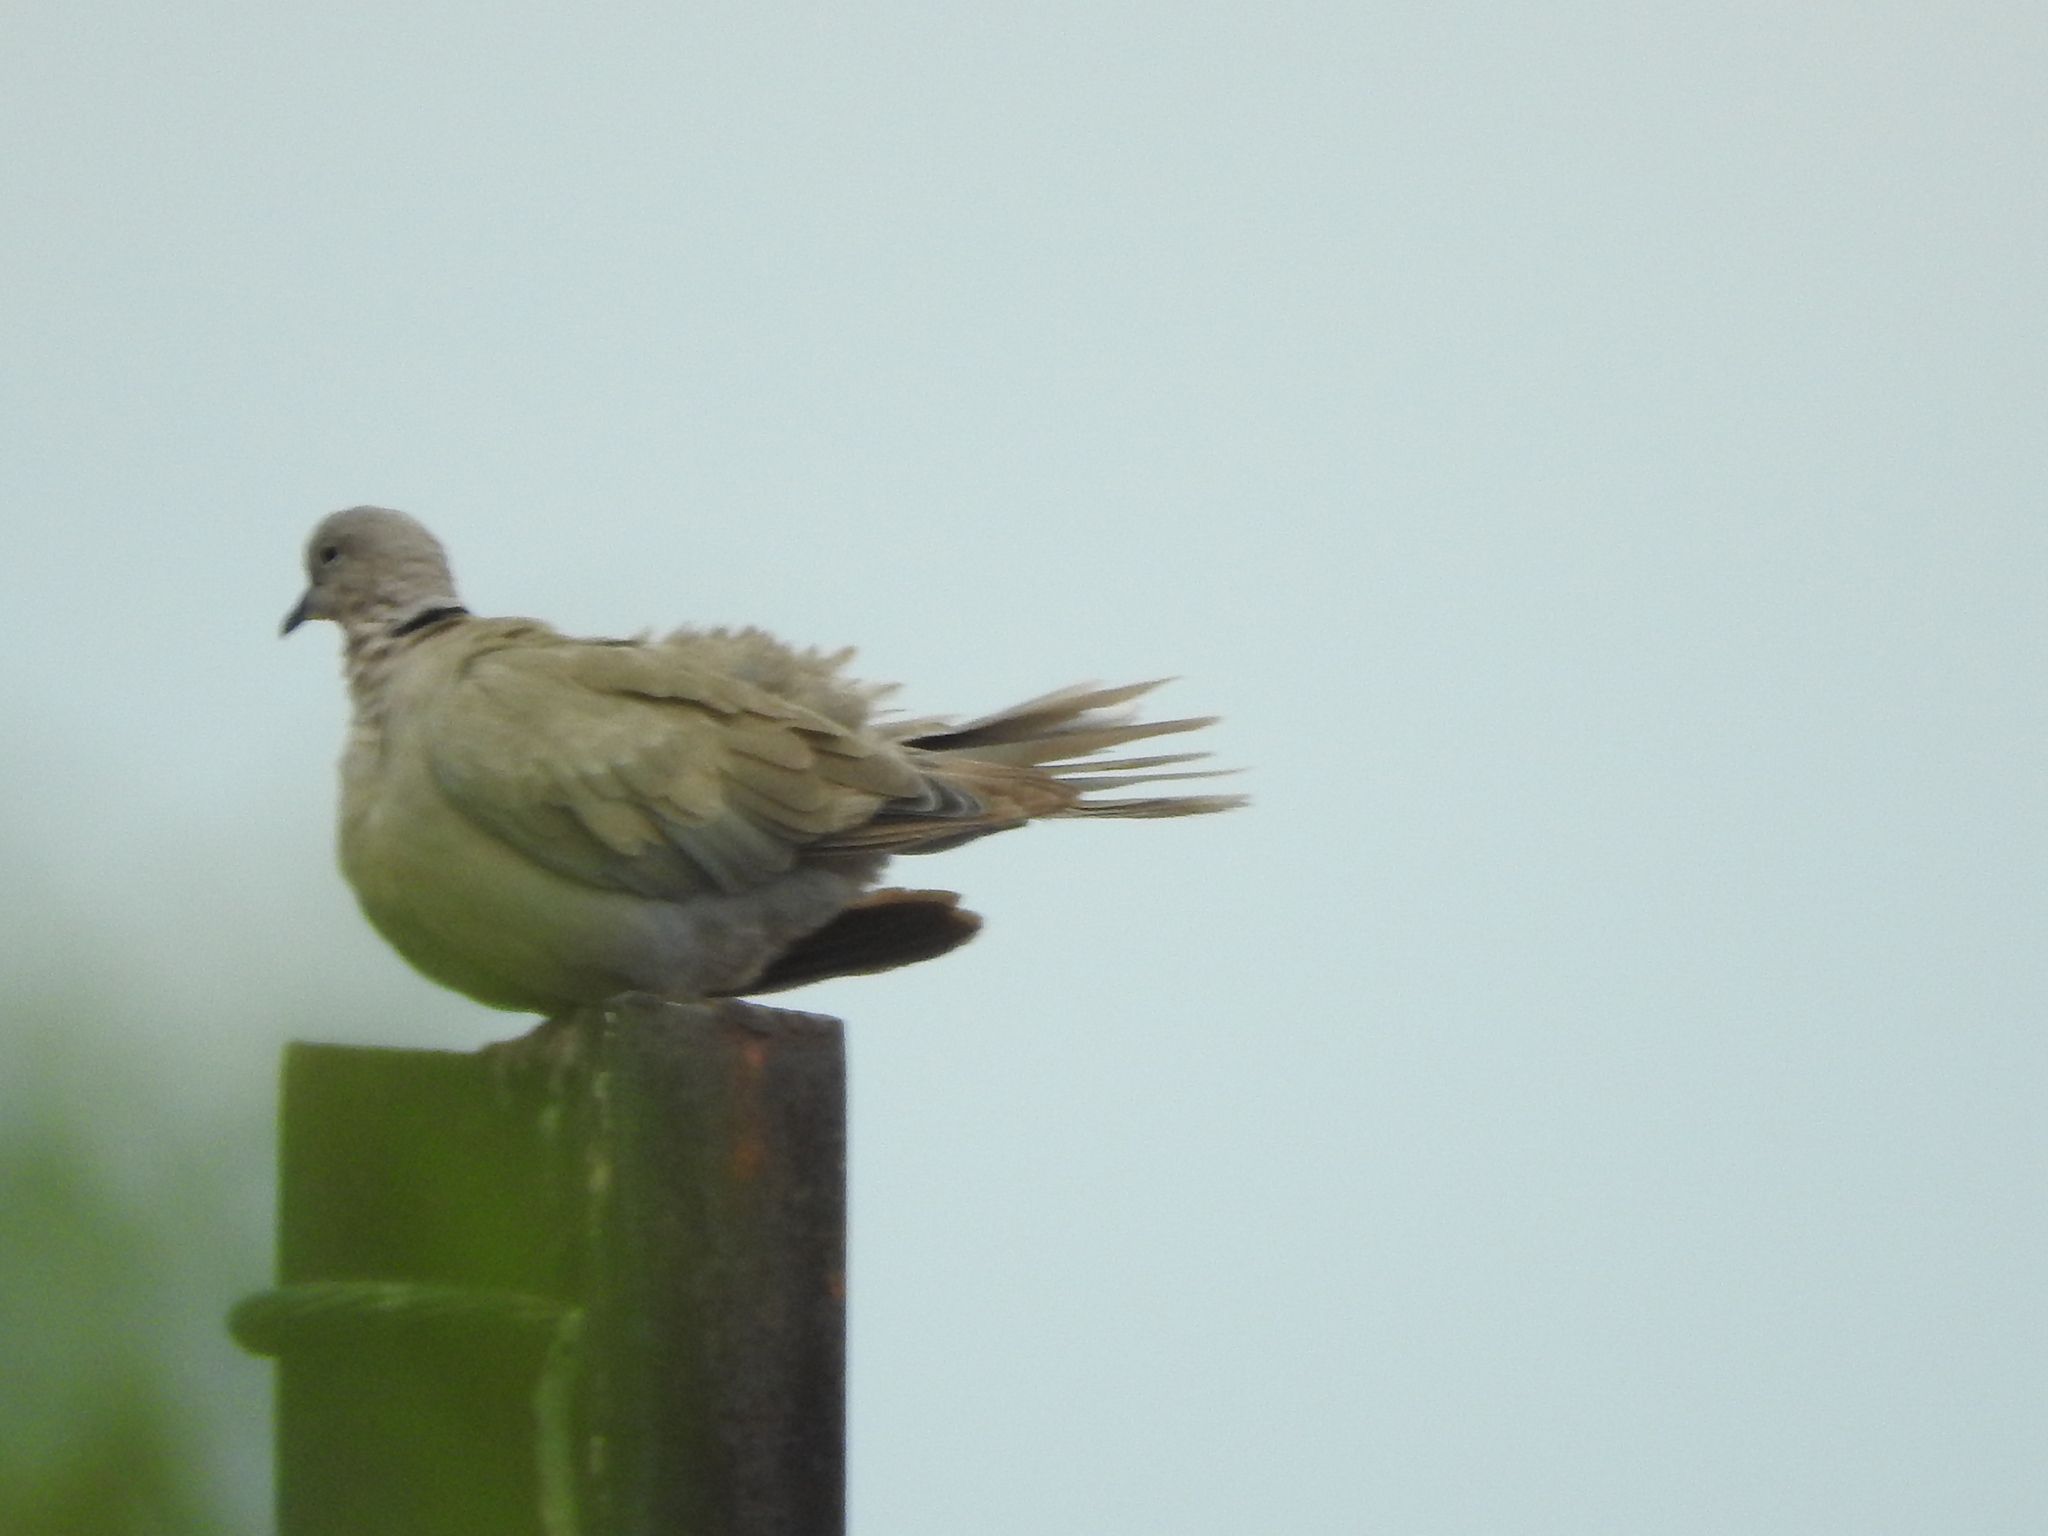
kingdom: Animalia
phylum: Chordata
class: Aves
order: Columbiformes
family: Columbidae
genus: Streptopelia
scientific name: Streptopelia decaocto
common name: Eurasian collared dove
